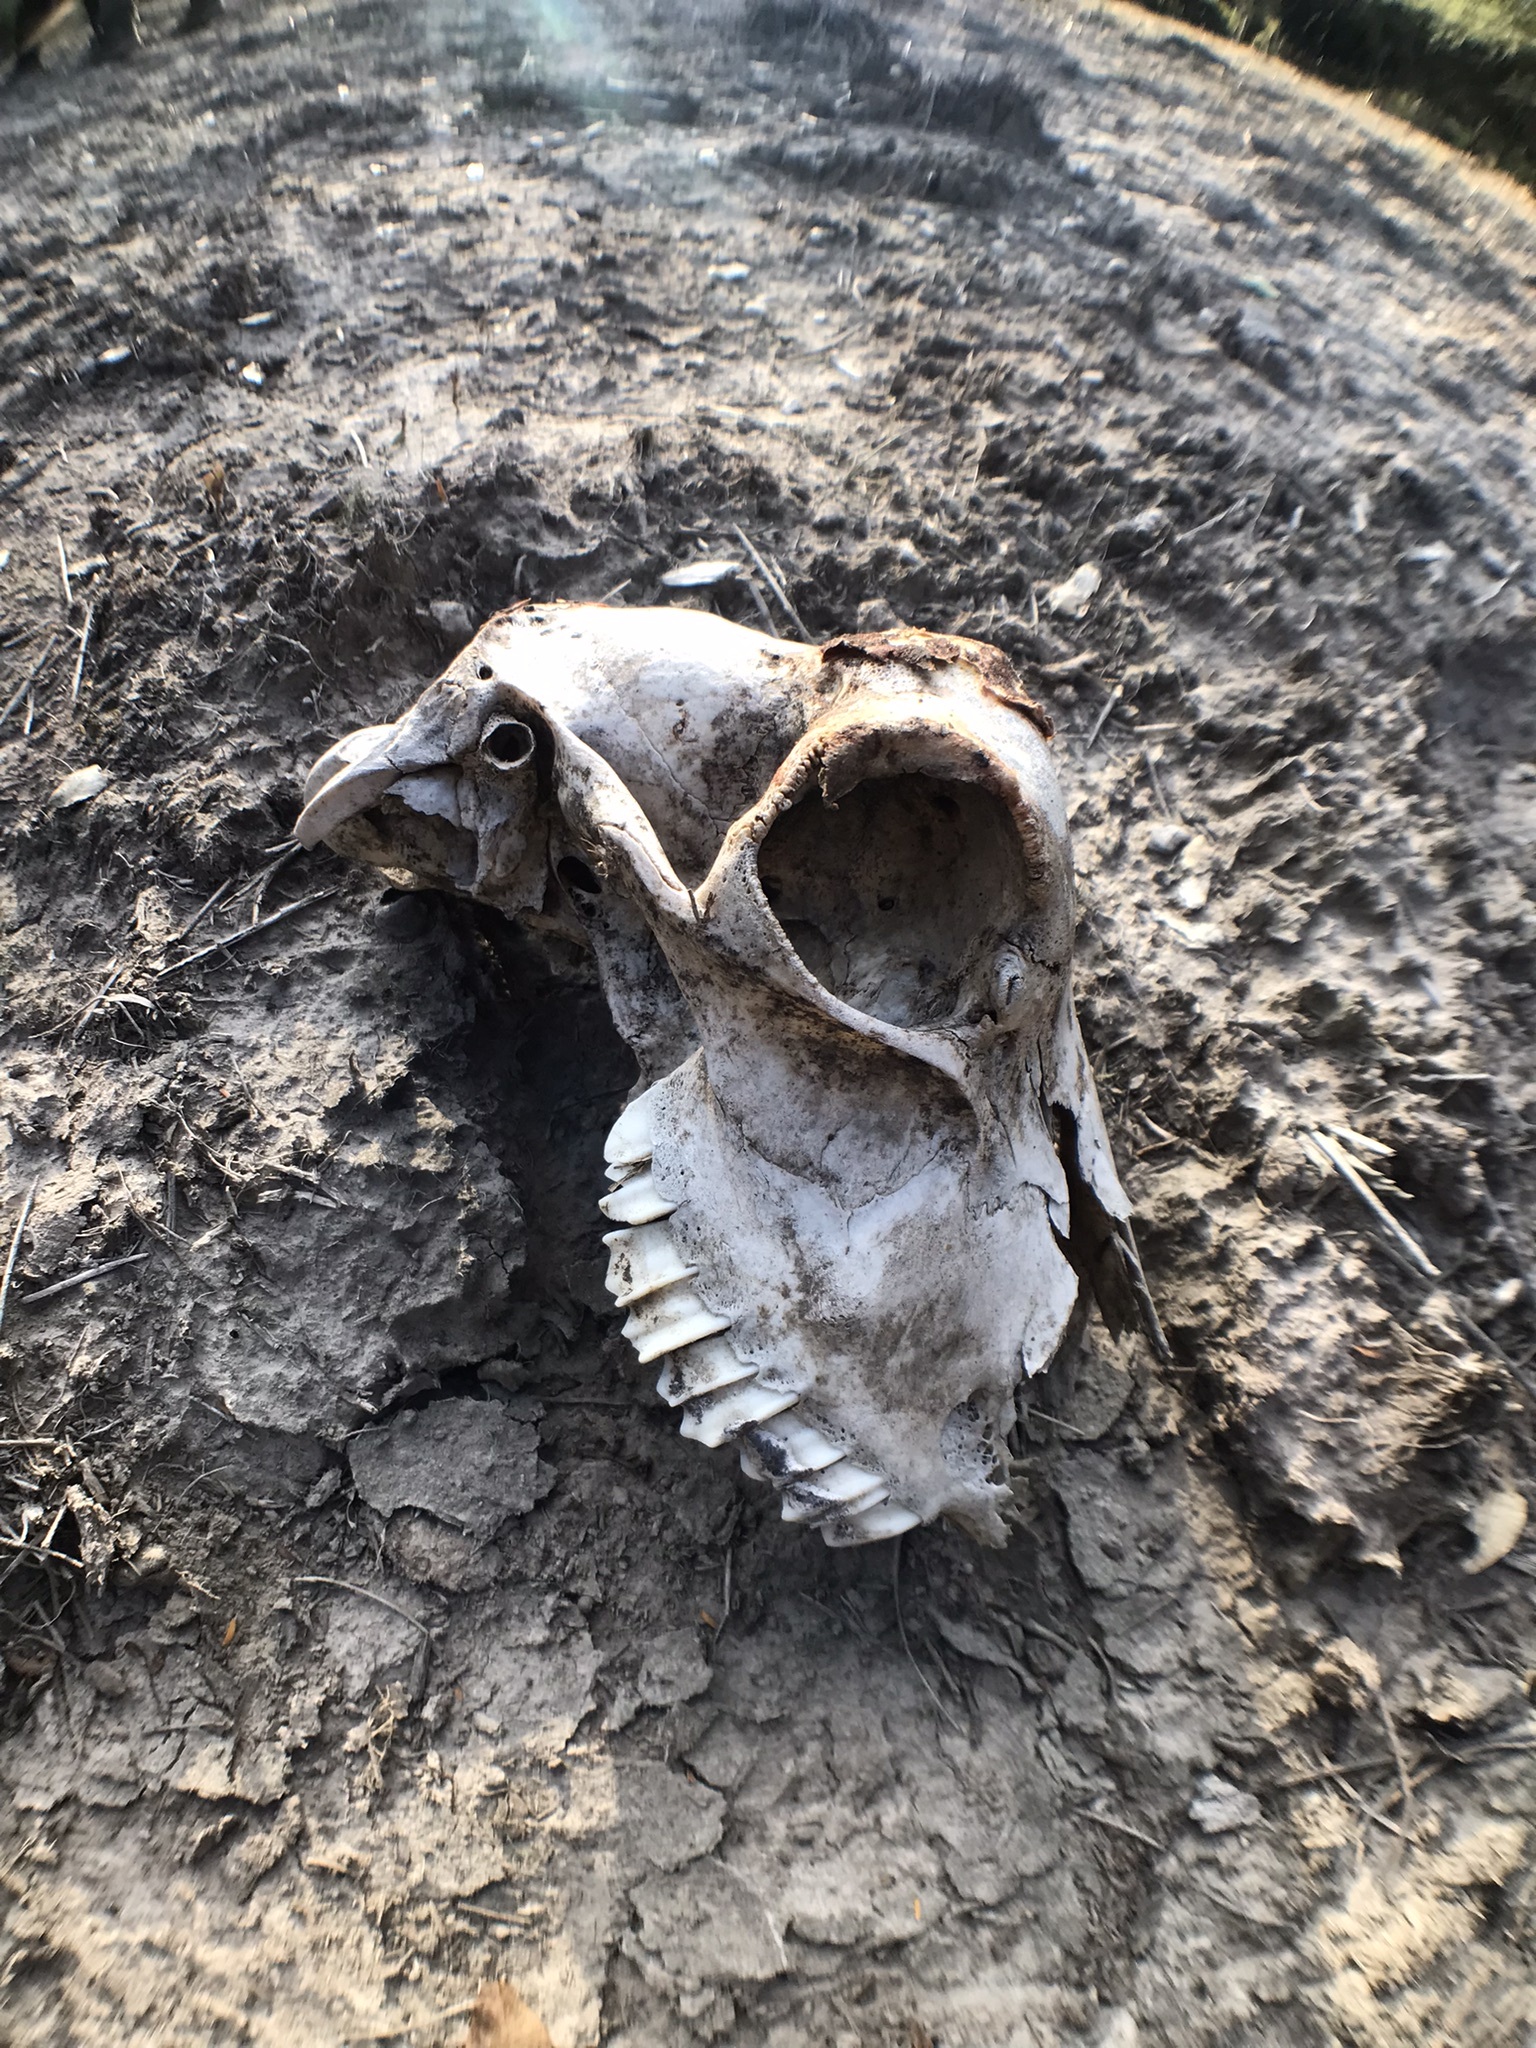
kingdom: Animalia
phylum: Chordata
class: Mammalia
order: Artiodactyla
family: Bovidae
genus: Capra
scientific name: Capra hircus
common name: Domestic goat
